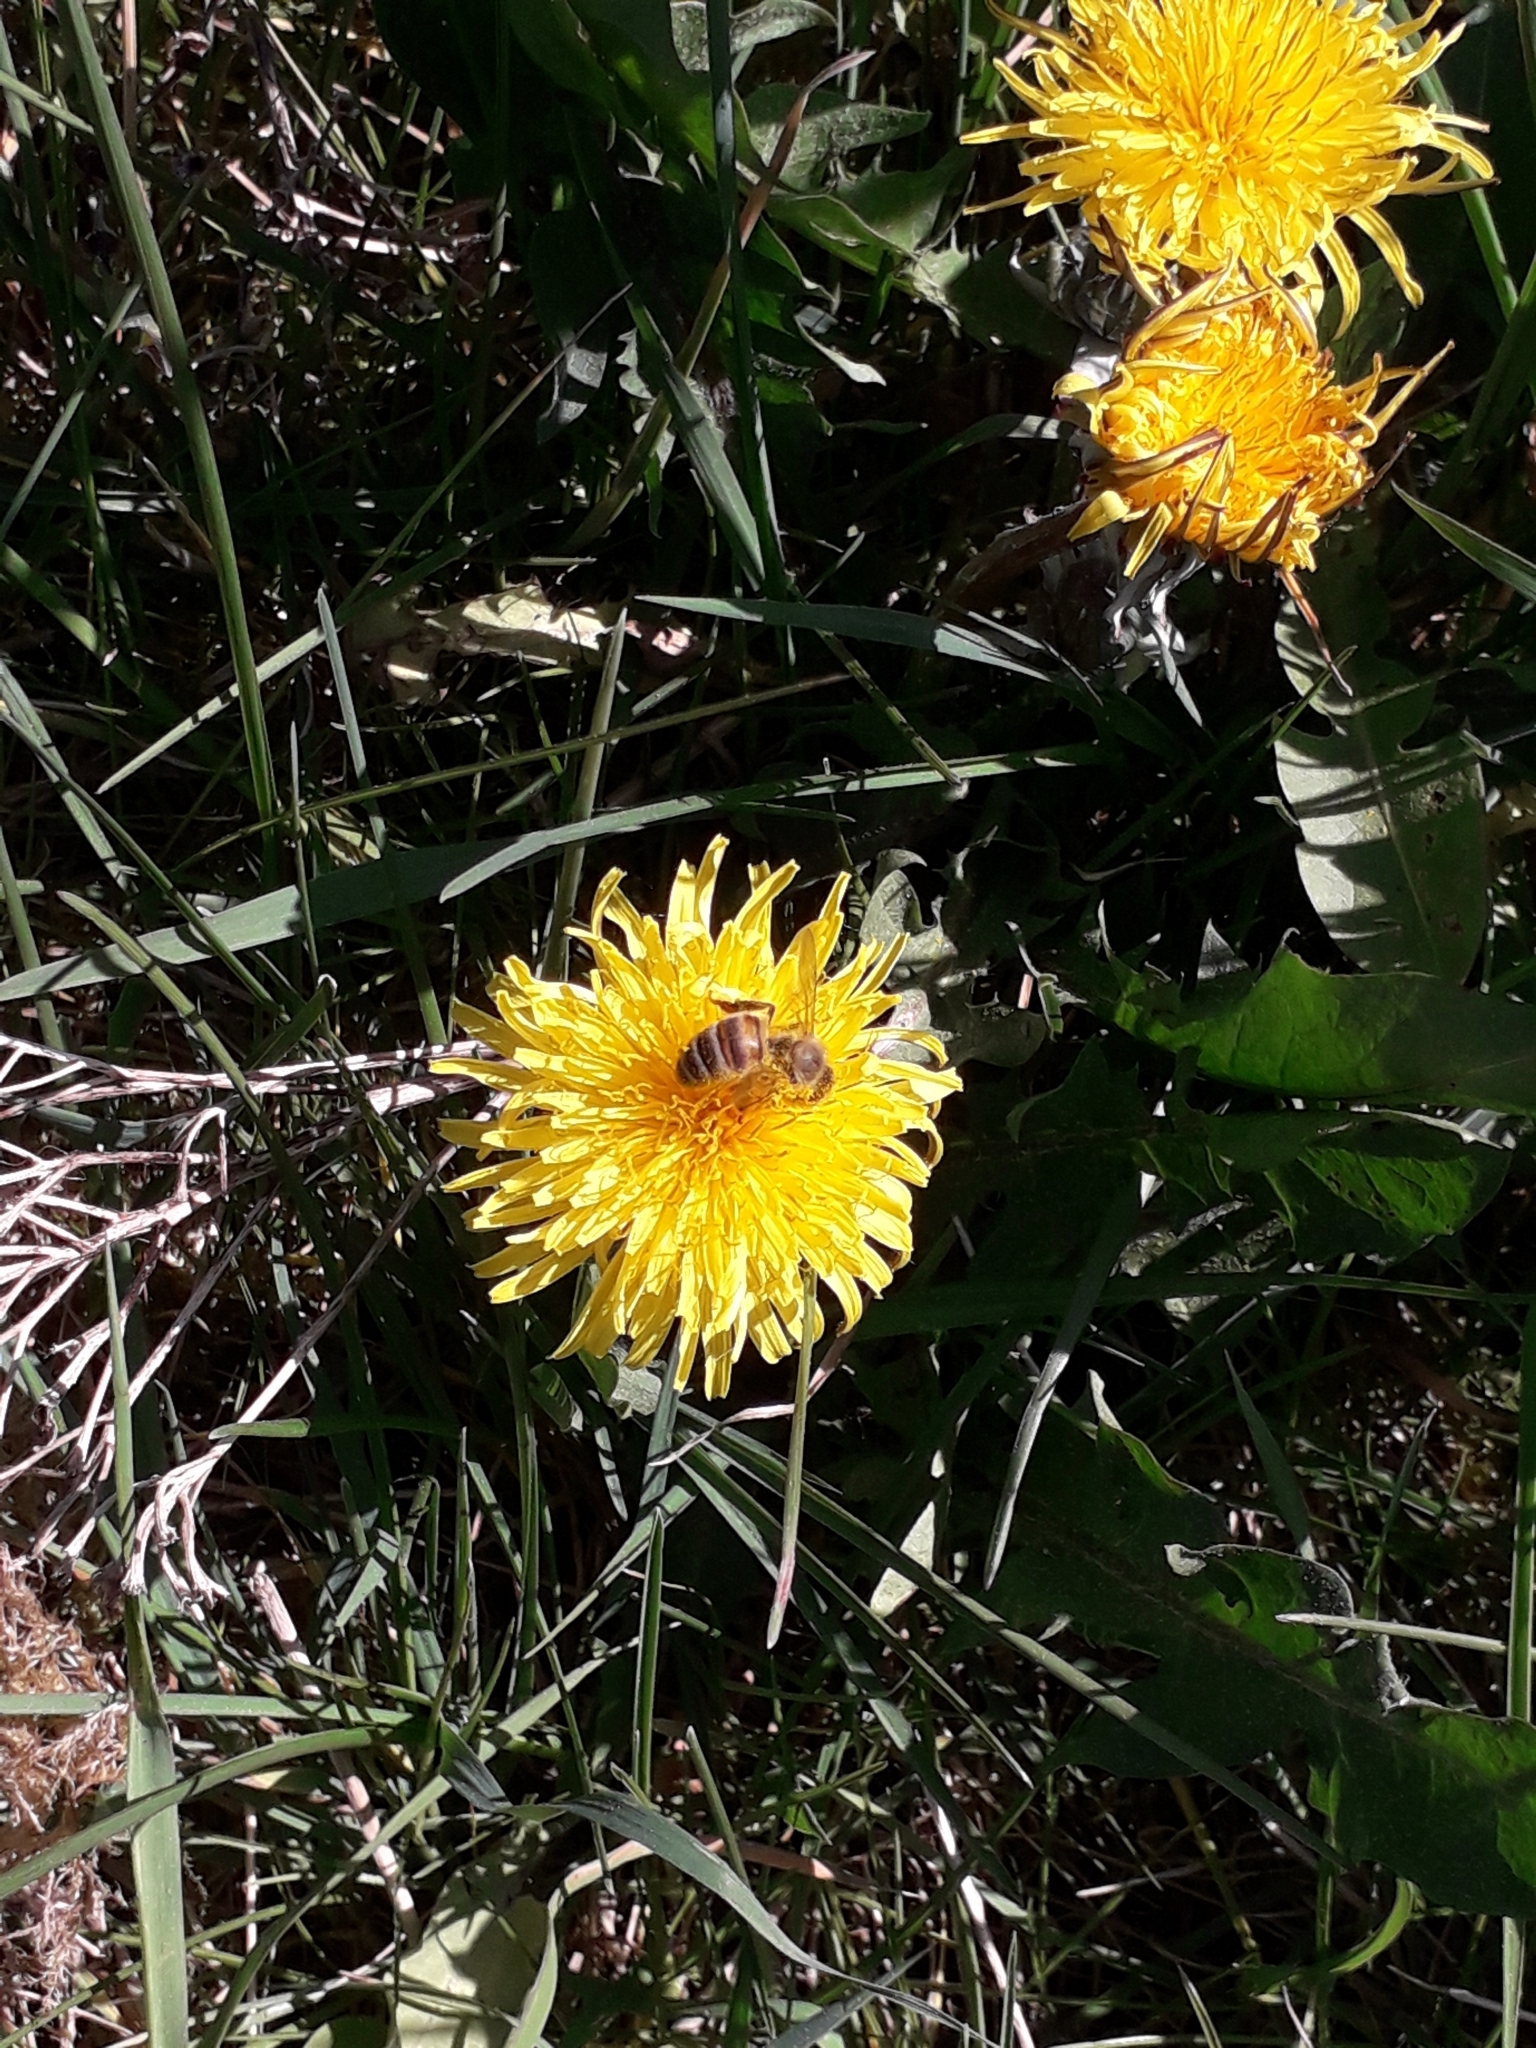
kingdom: Animalia
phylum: Arthropoda
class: Insecta
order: Hymenoptera
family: Apidae
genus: Apis
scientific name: Apis mellifera
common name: Honey bee
